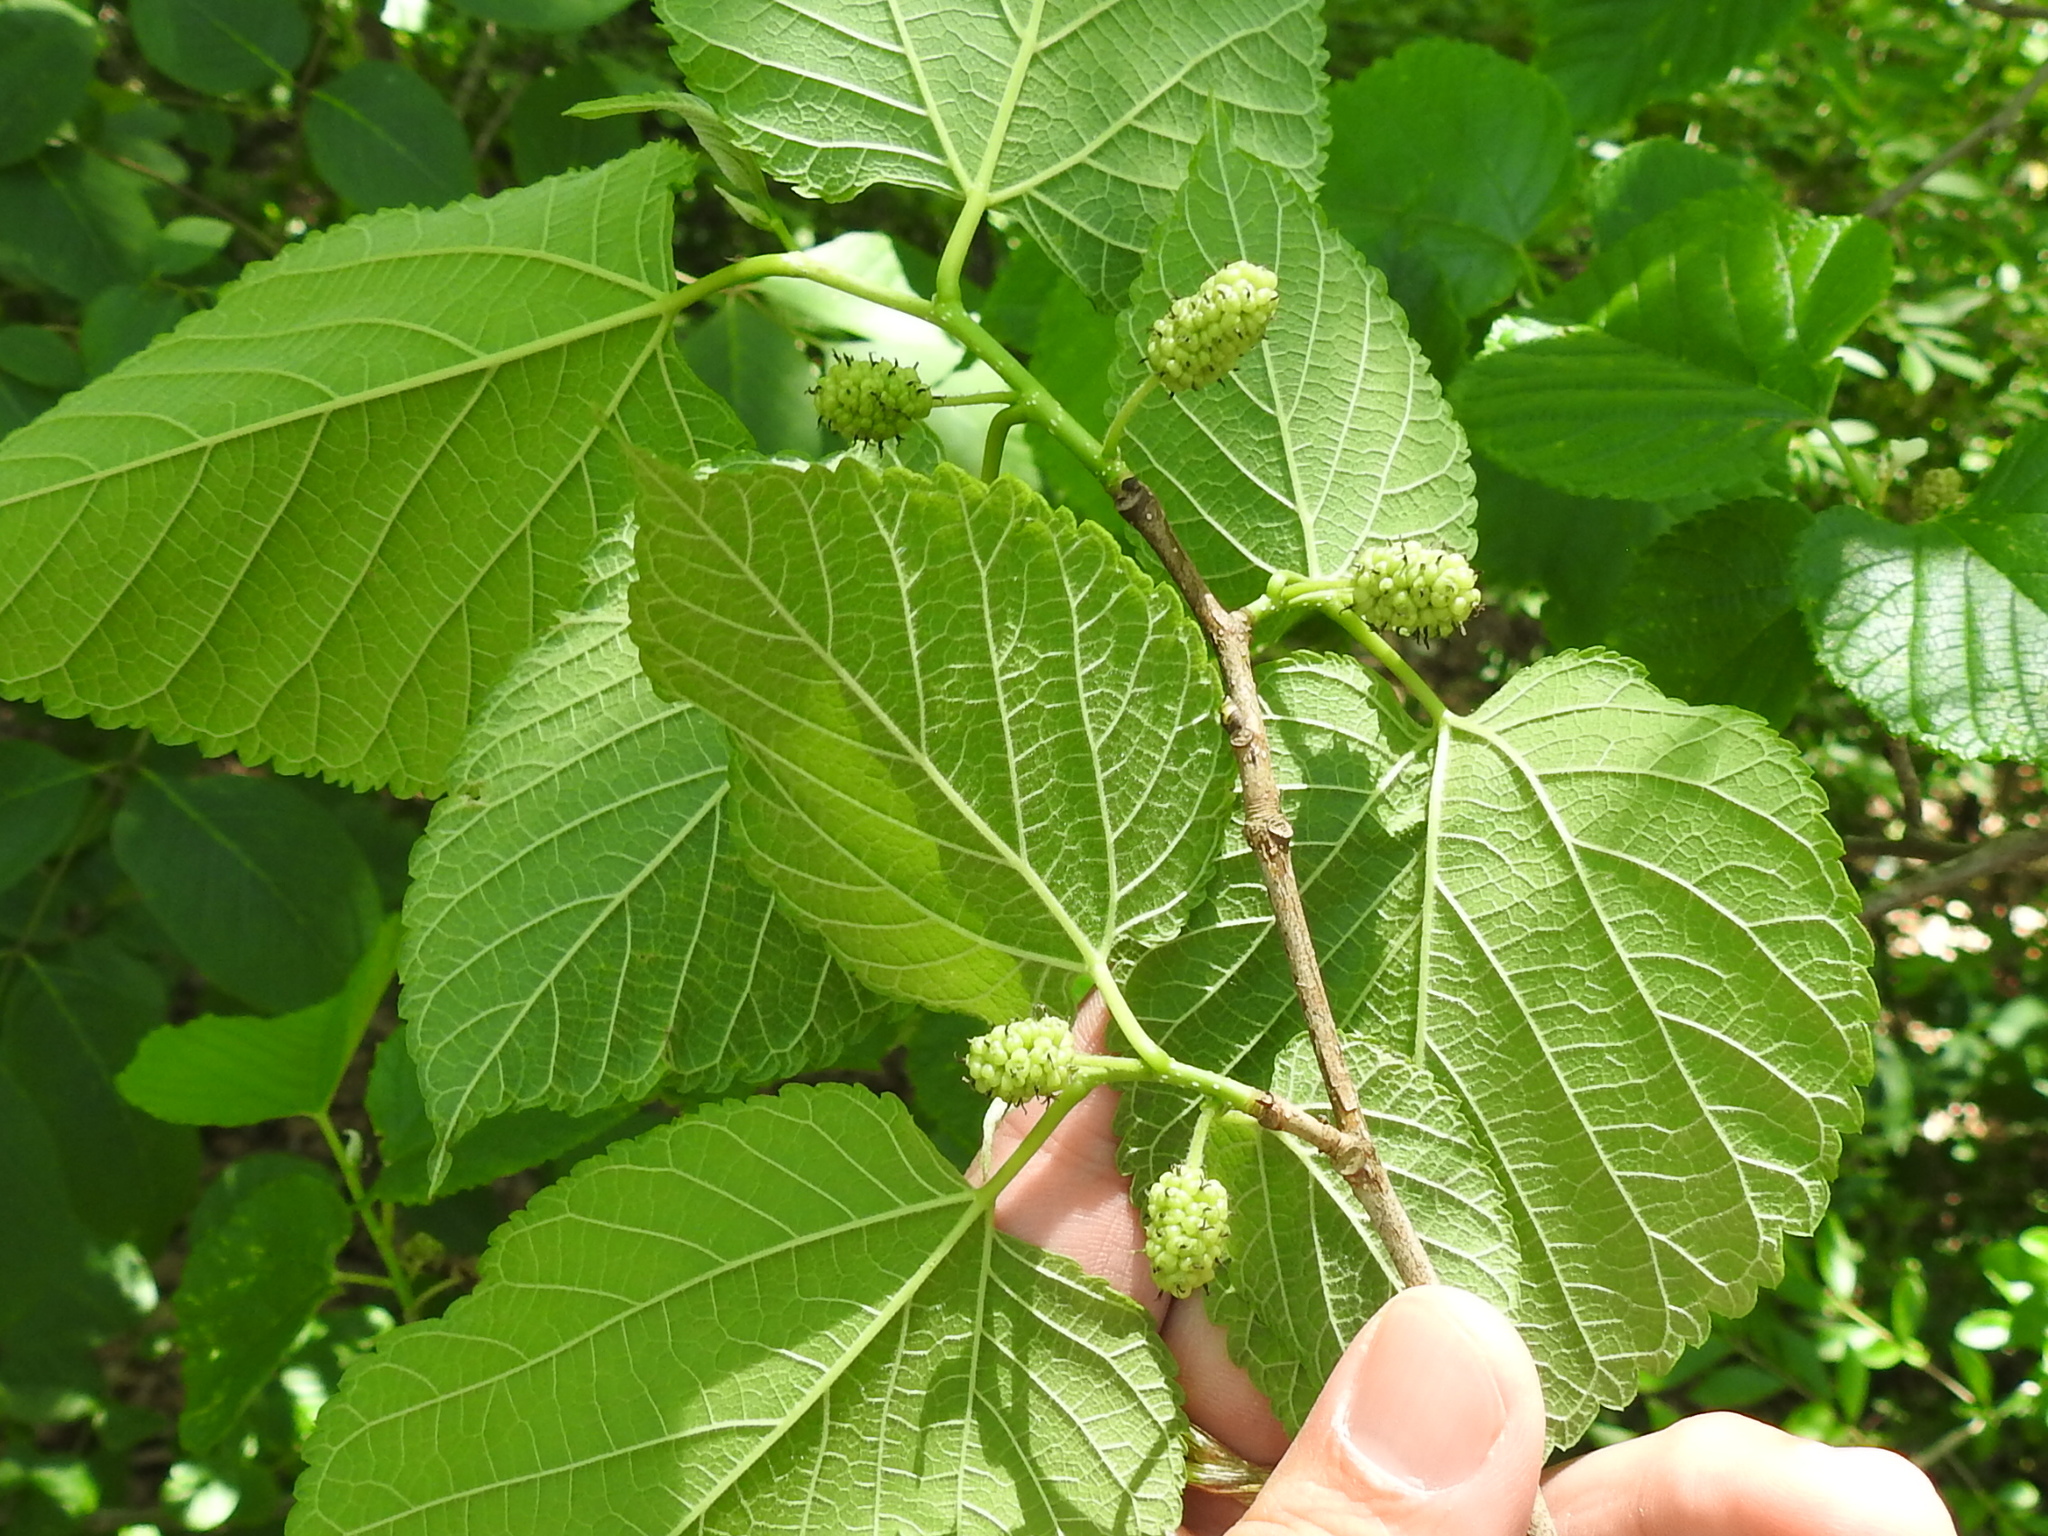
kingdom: Plantae
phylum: Tracheophyta
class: Magnoliopsida
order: Rosales
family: Moraceae
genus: Morus
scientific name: Morus rubra
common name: Red mulberry
